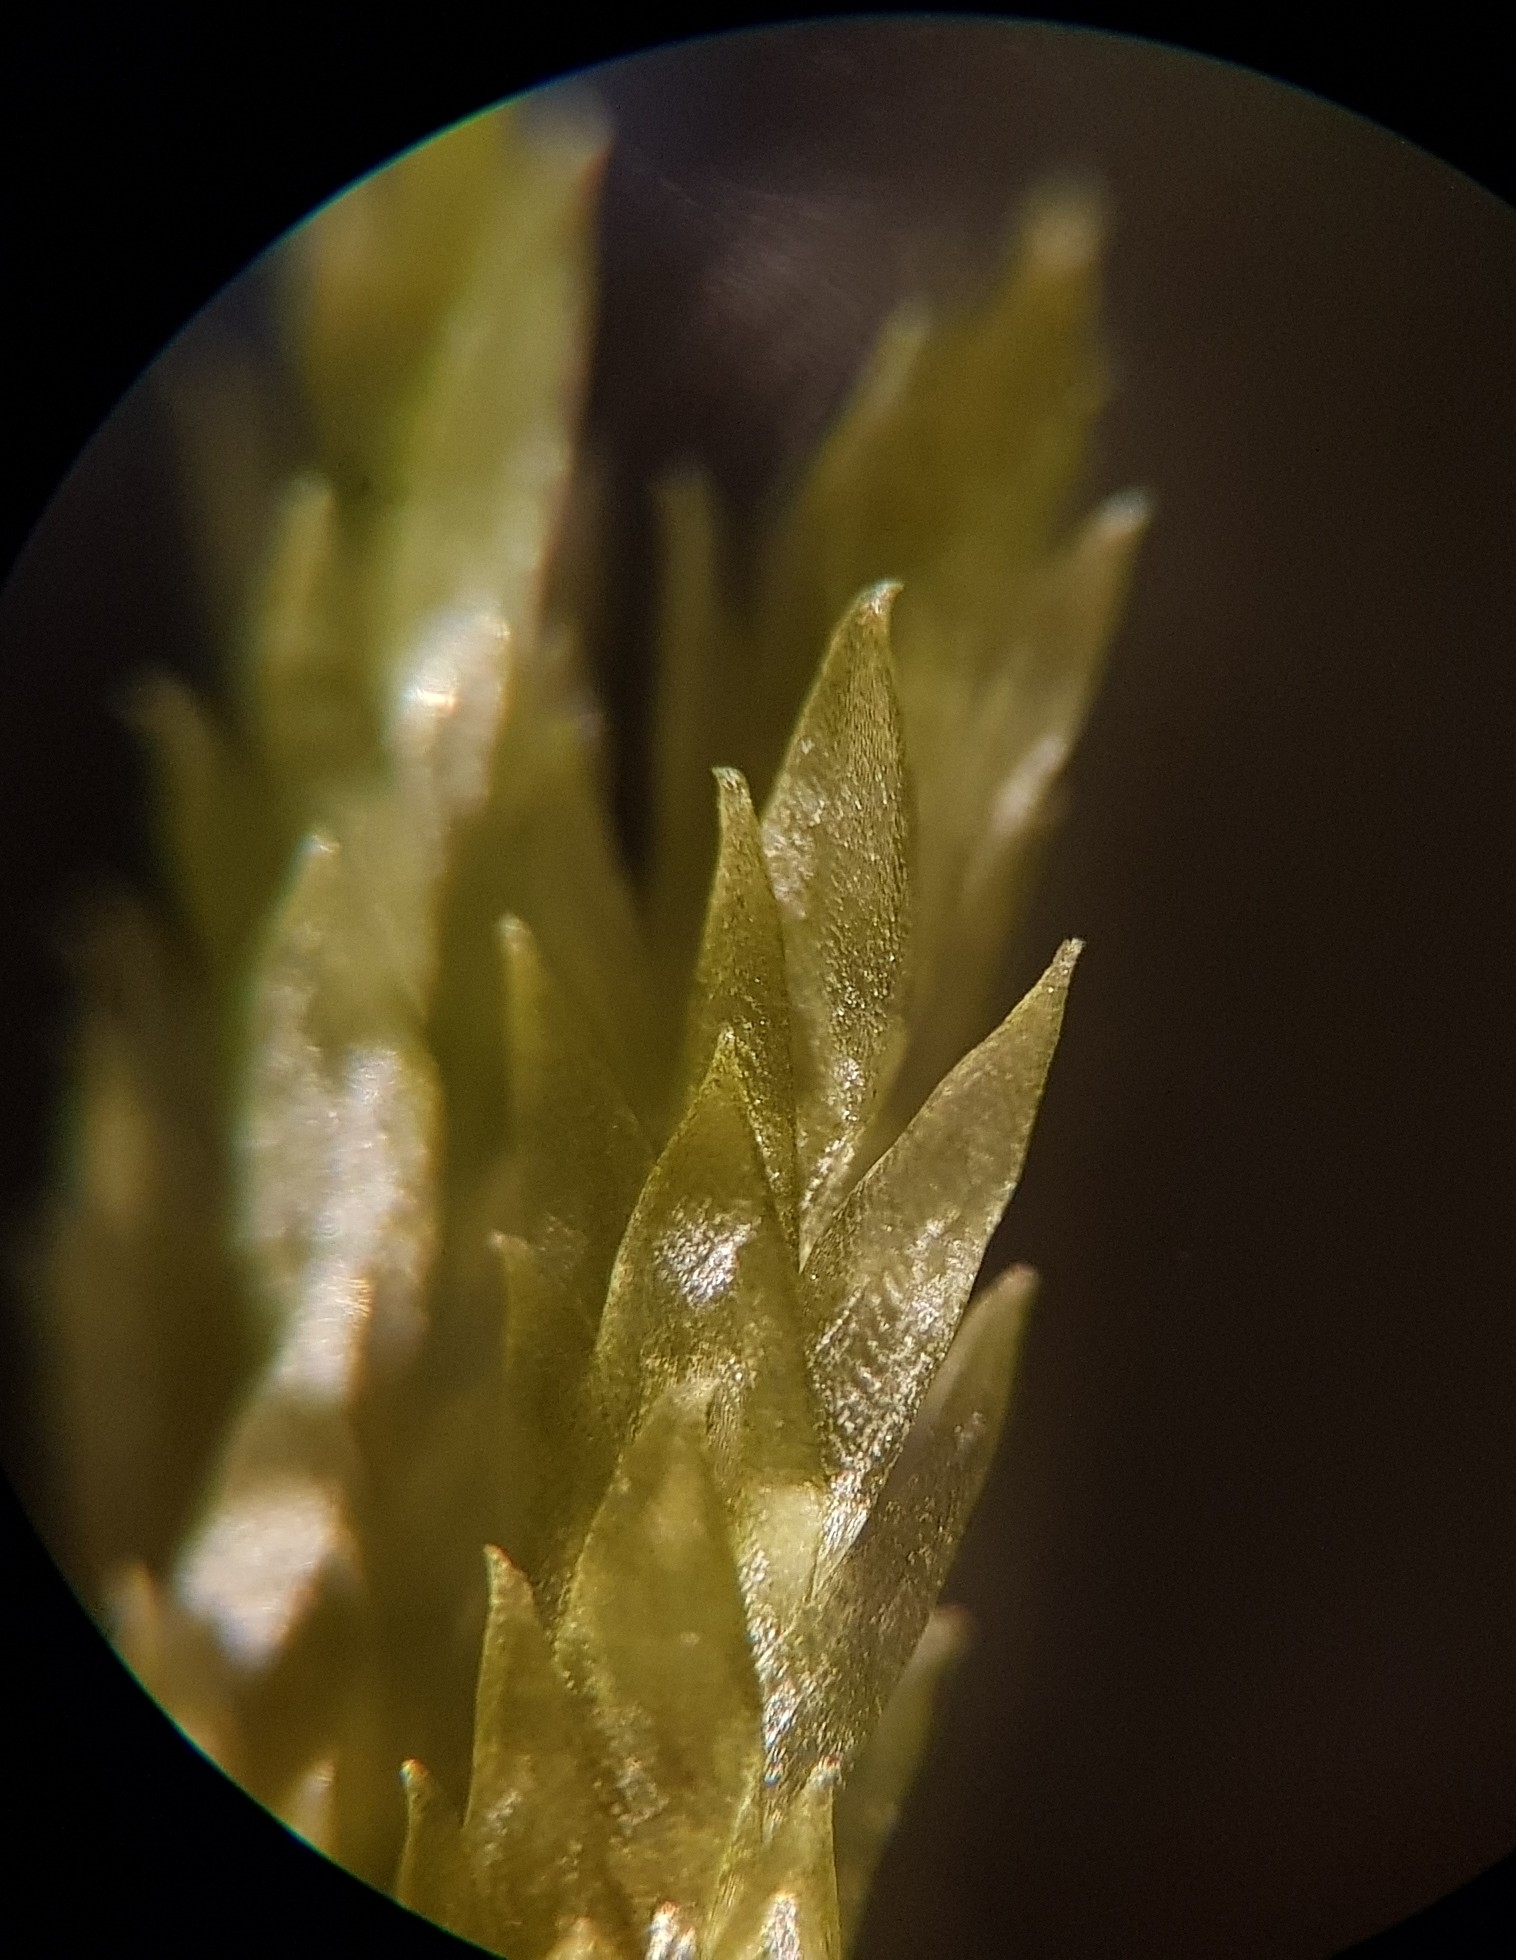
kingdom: Plantae
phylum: Bryophyta
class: Bryopsida
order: Hypnales
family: Hylocomiaceae
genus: Pleurozium
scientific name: Pleurozium schreberi
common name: Red-stemmed feather moss
